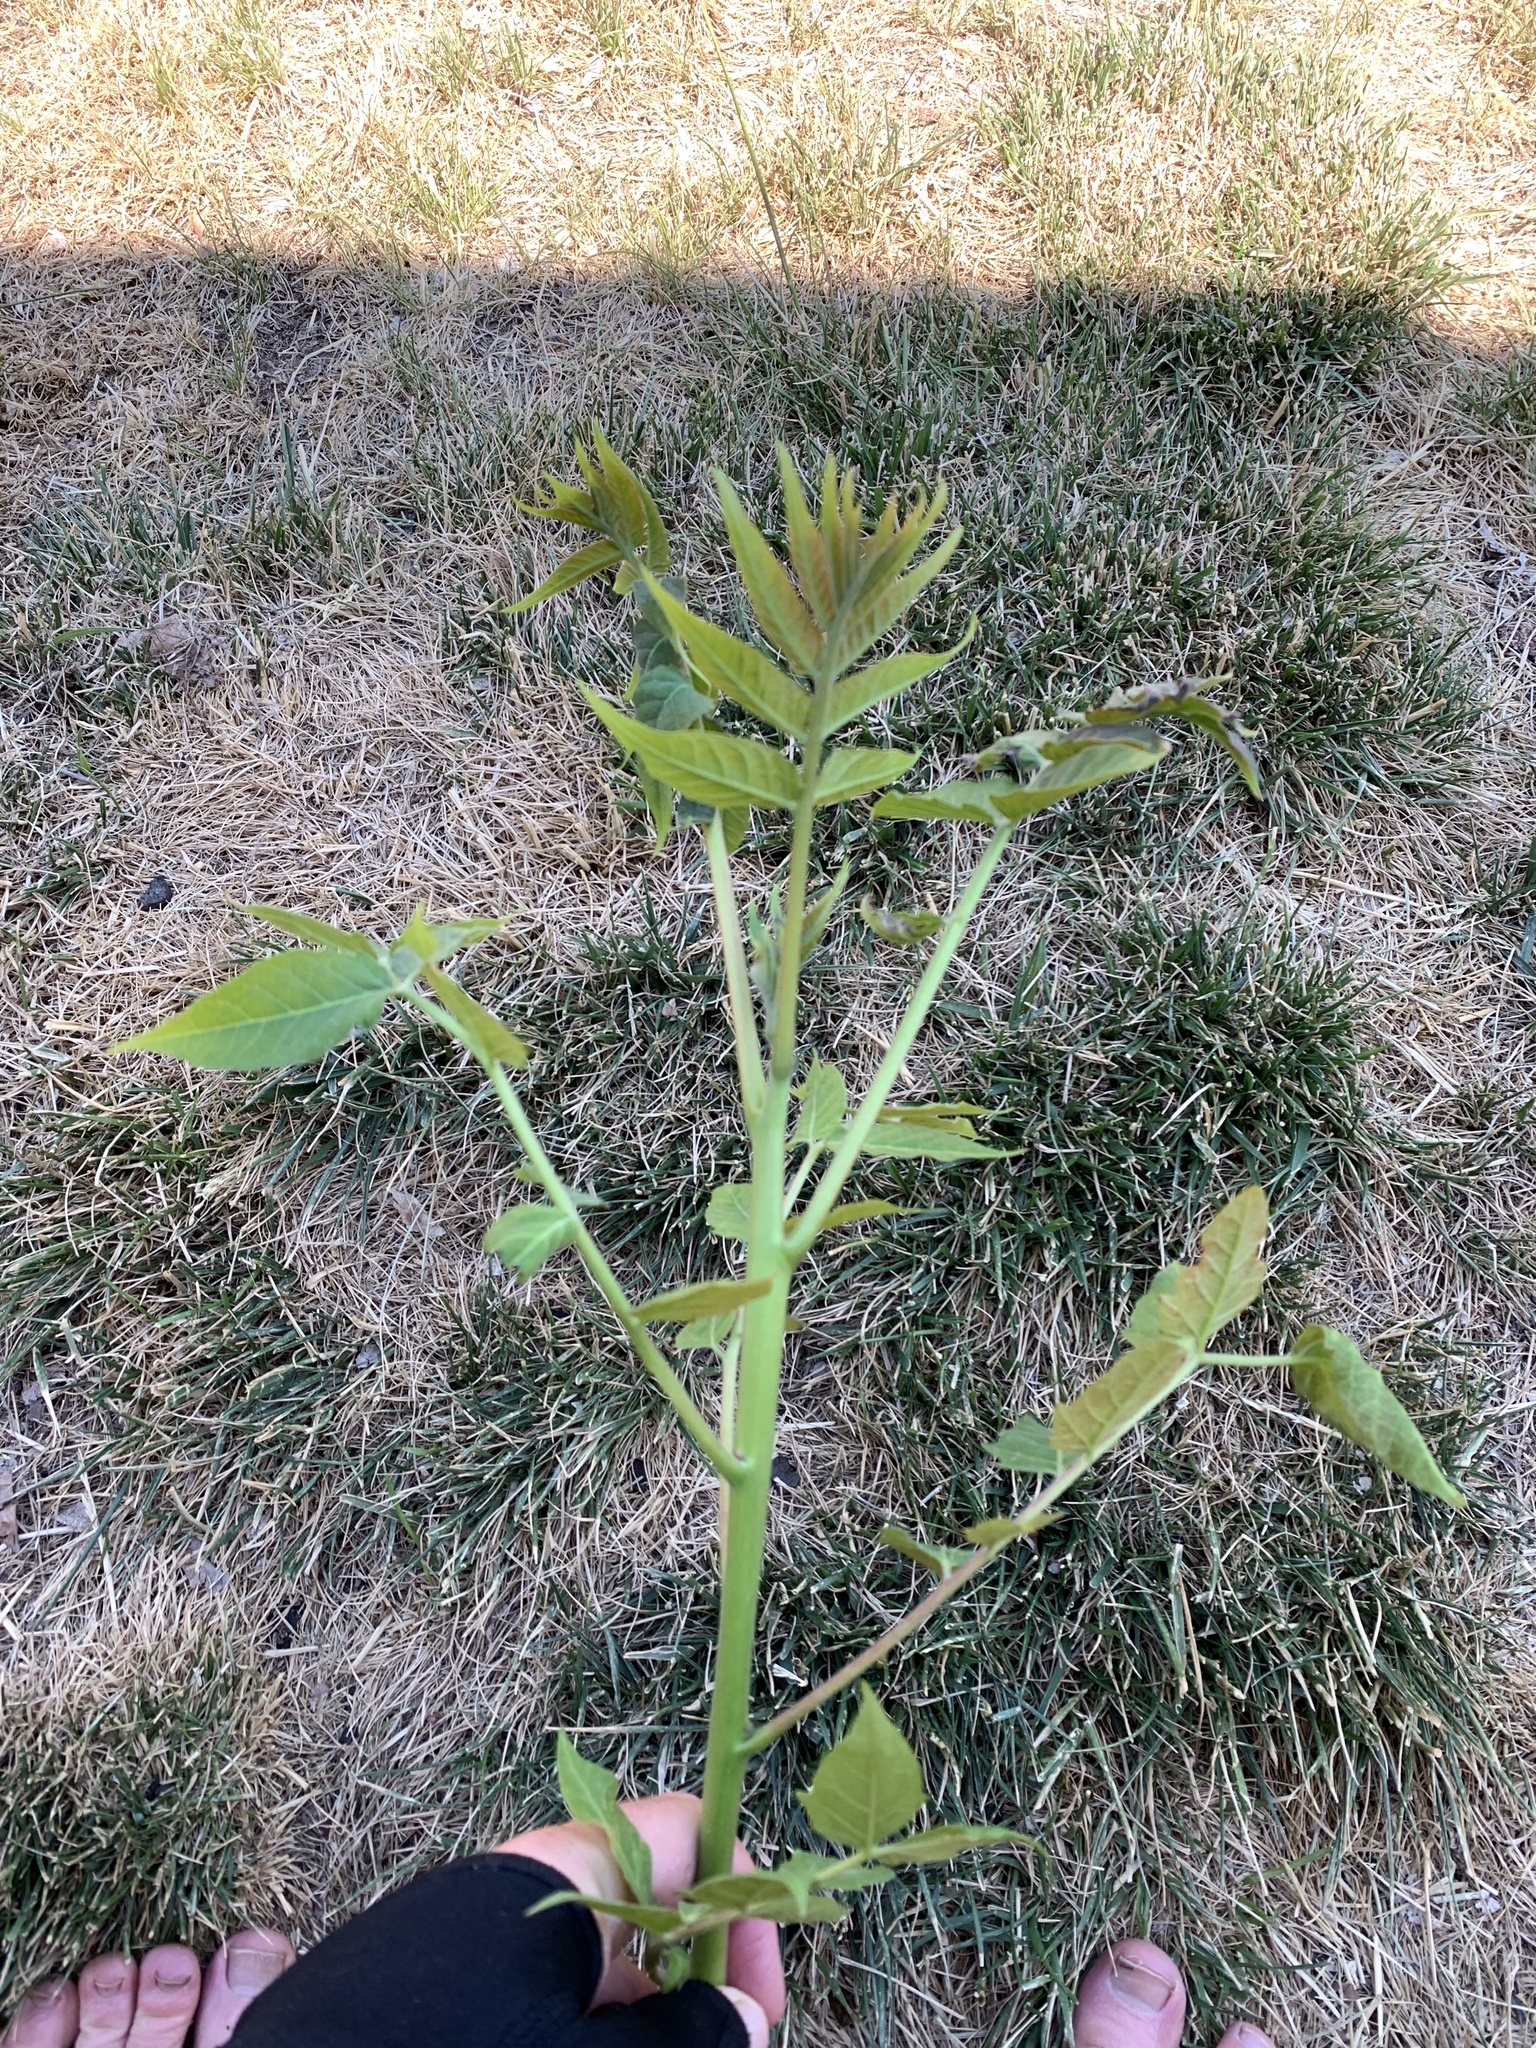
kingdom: Plantae
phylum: Tracheophyta
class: Magnoliopsida
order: Sapindales
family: Simaroubaceae
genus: Ailanthus
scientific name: Ailanthus altissima
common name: Tree-of-heaven
